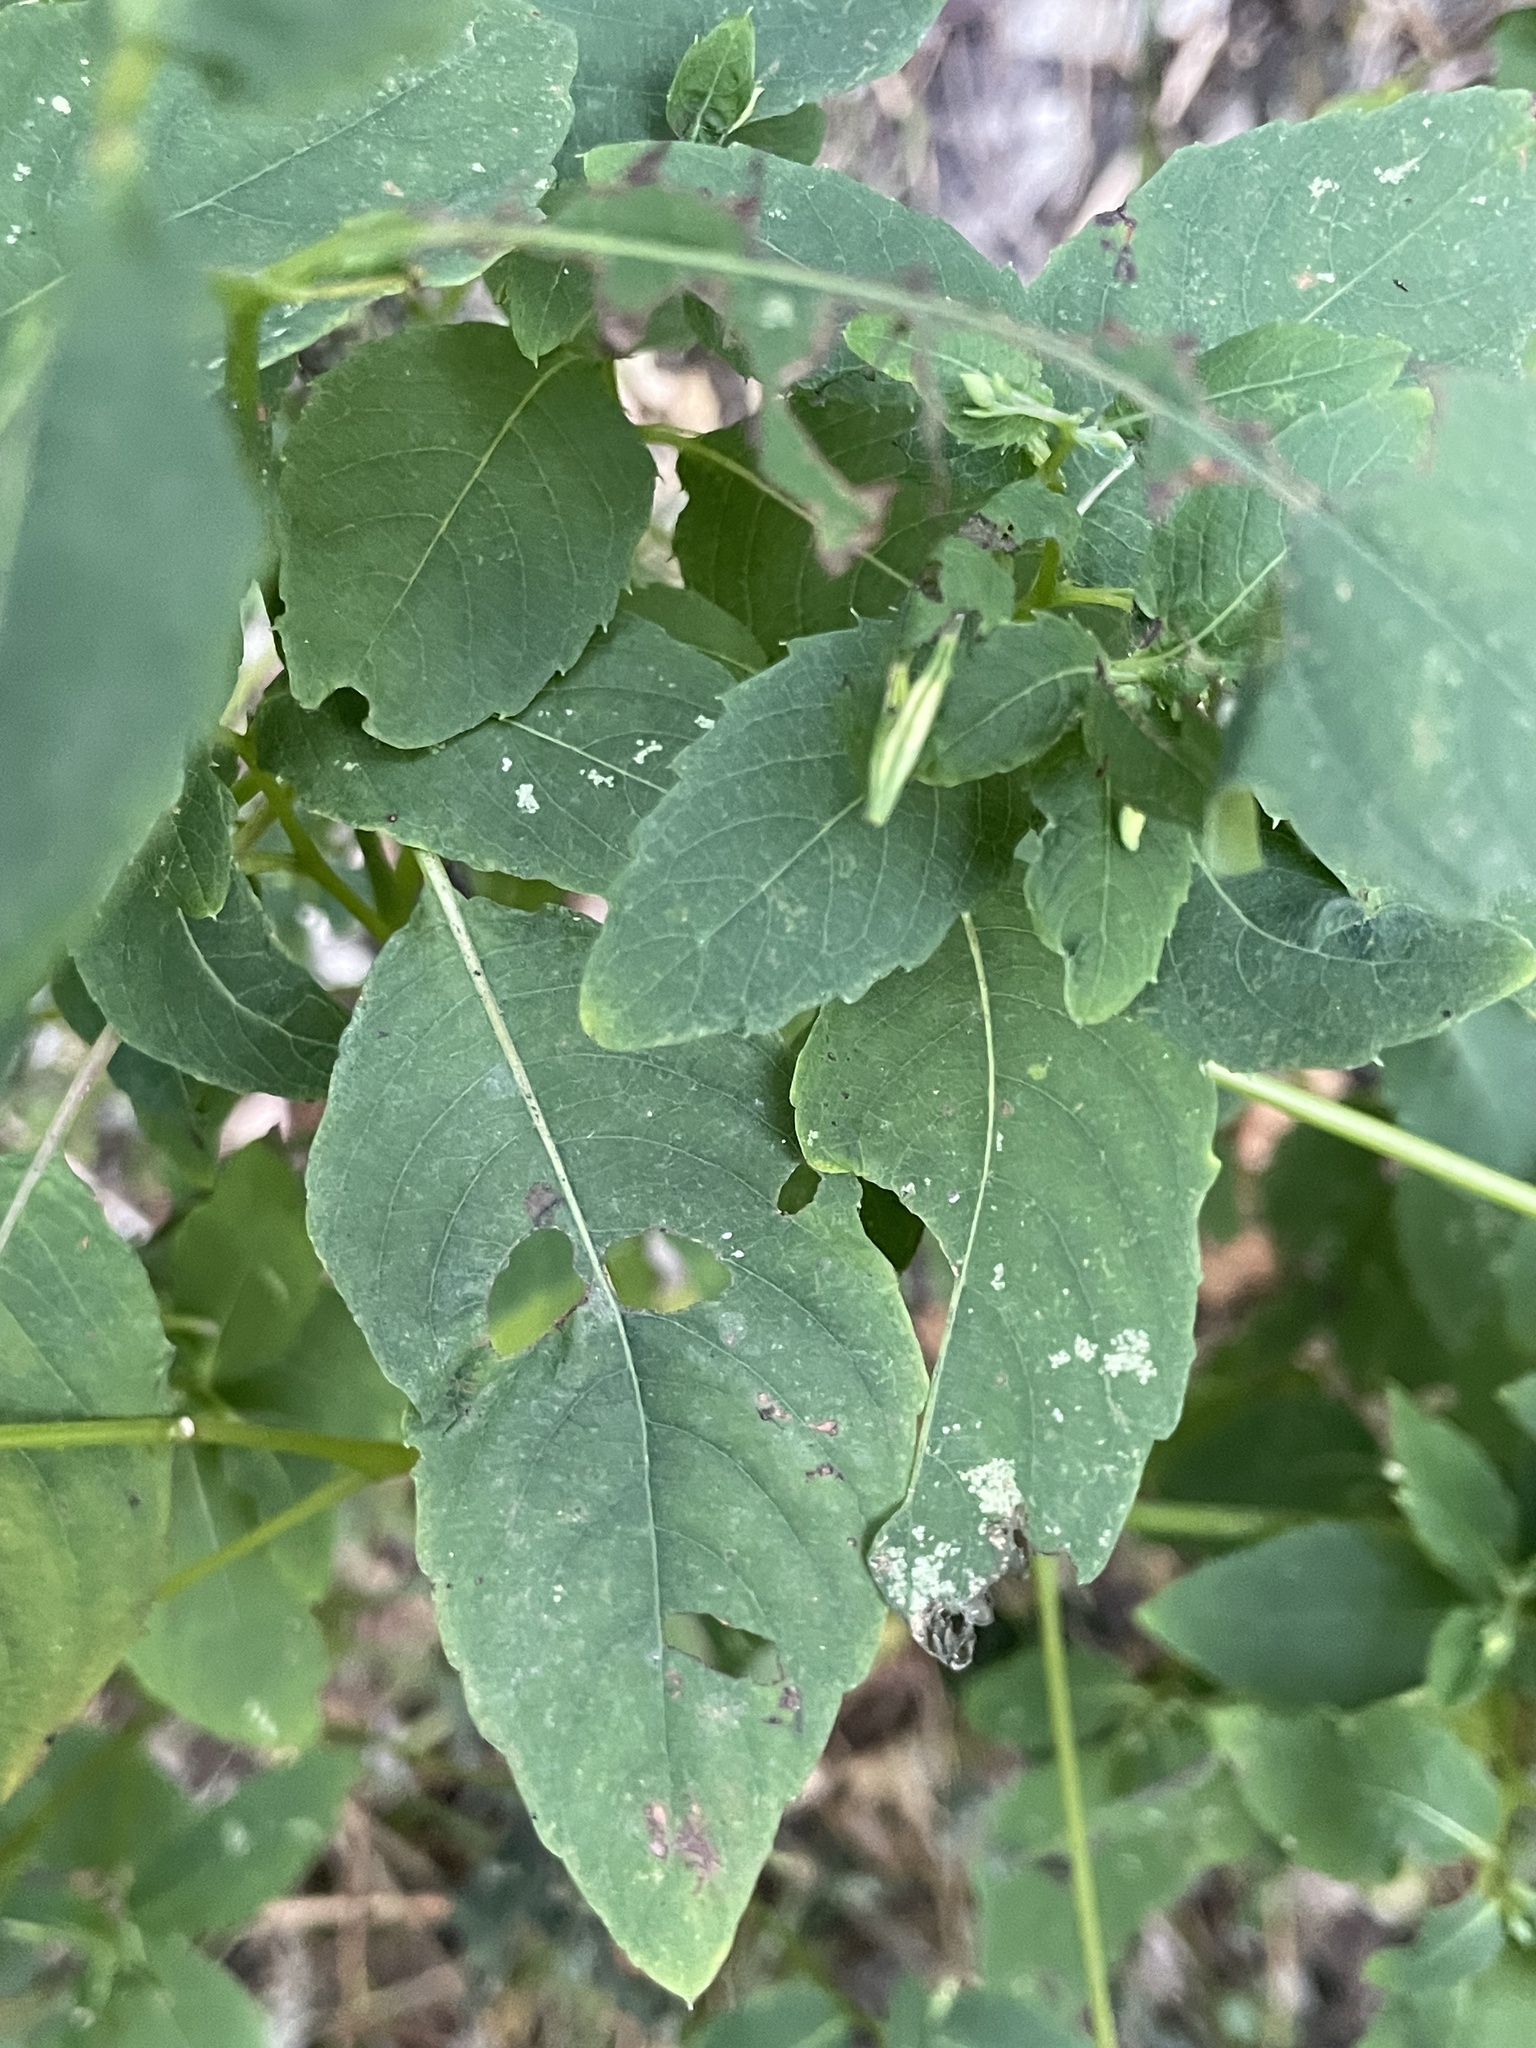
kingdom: Plantae
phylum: Tracheophyta
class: Magnoliopsida
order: Ericales
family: Balsaminaceae
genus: Impatiens
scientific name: Impatiens pallida
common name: Pale snapweed
